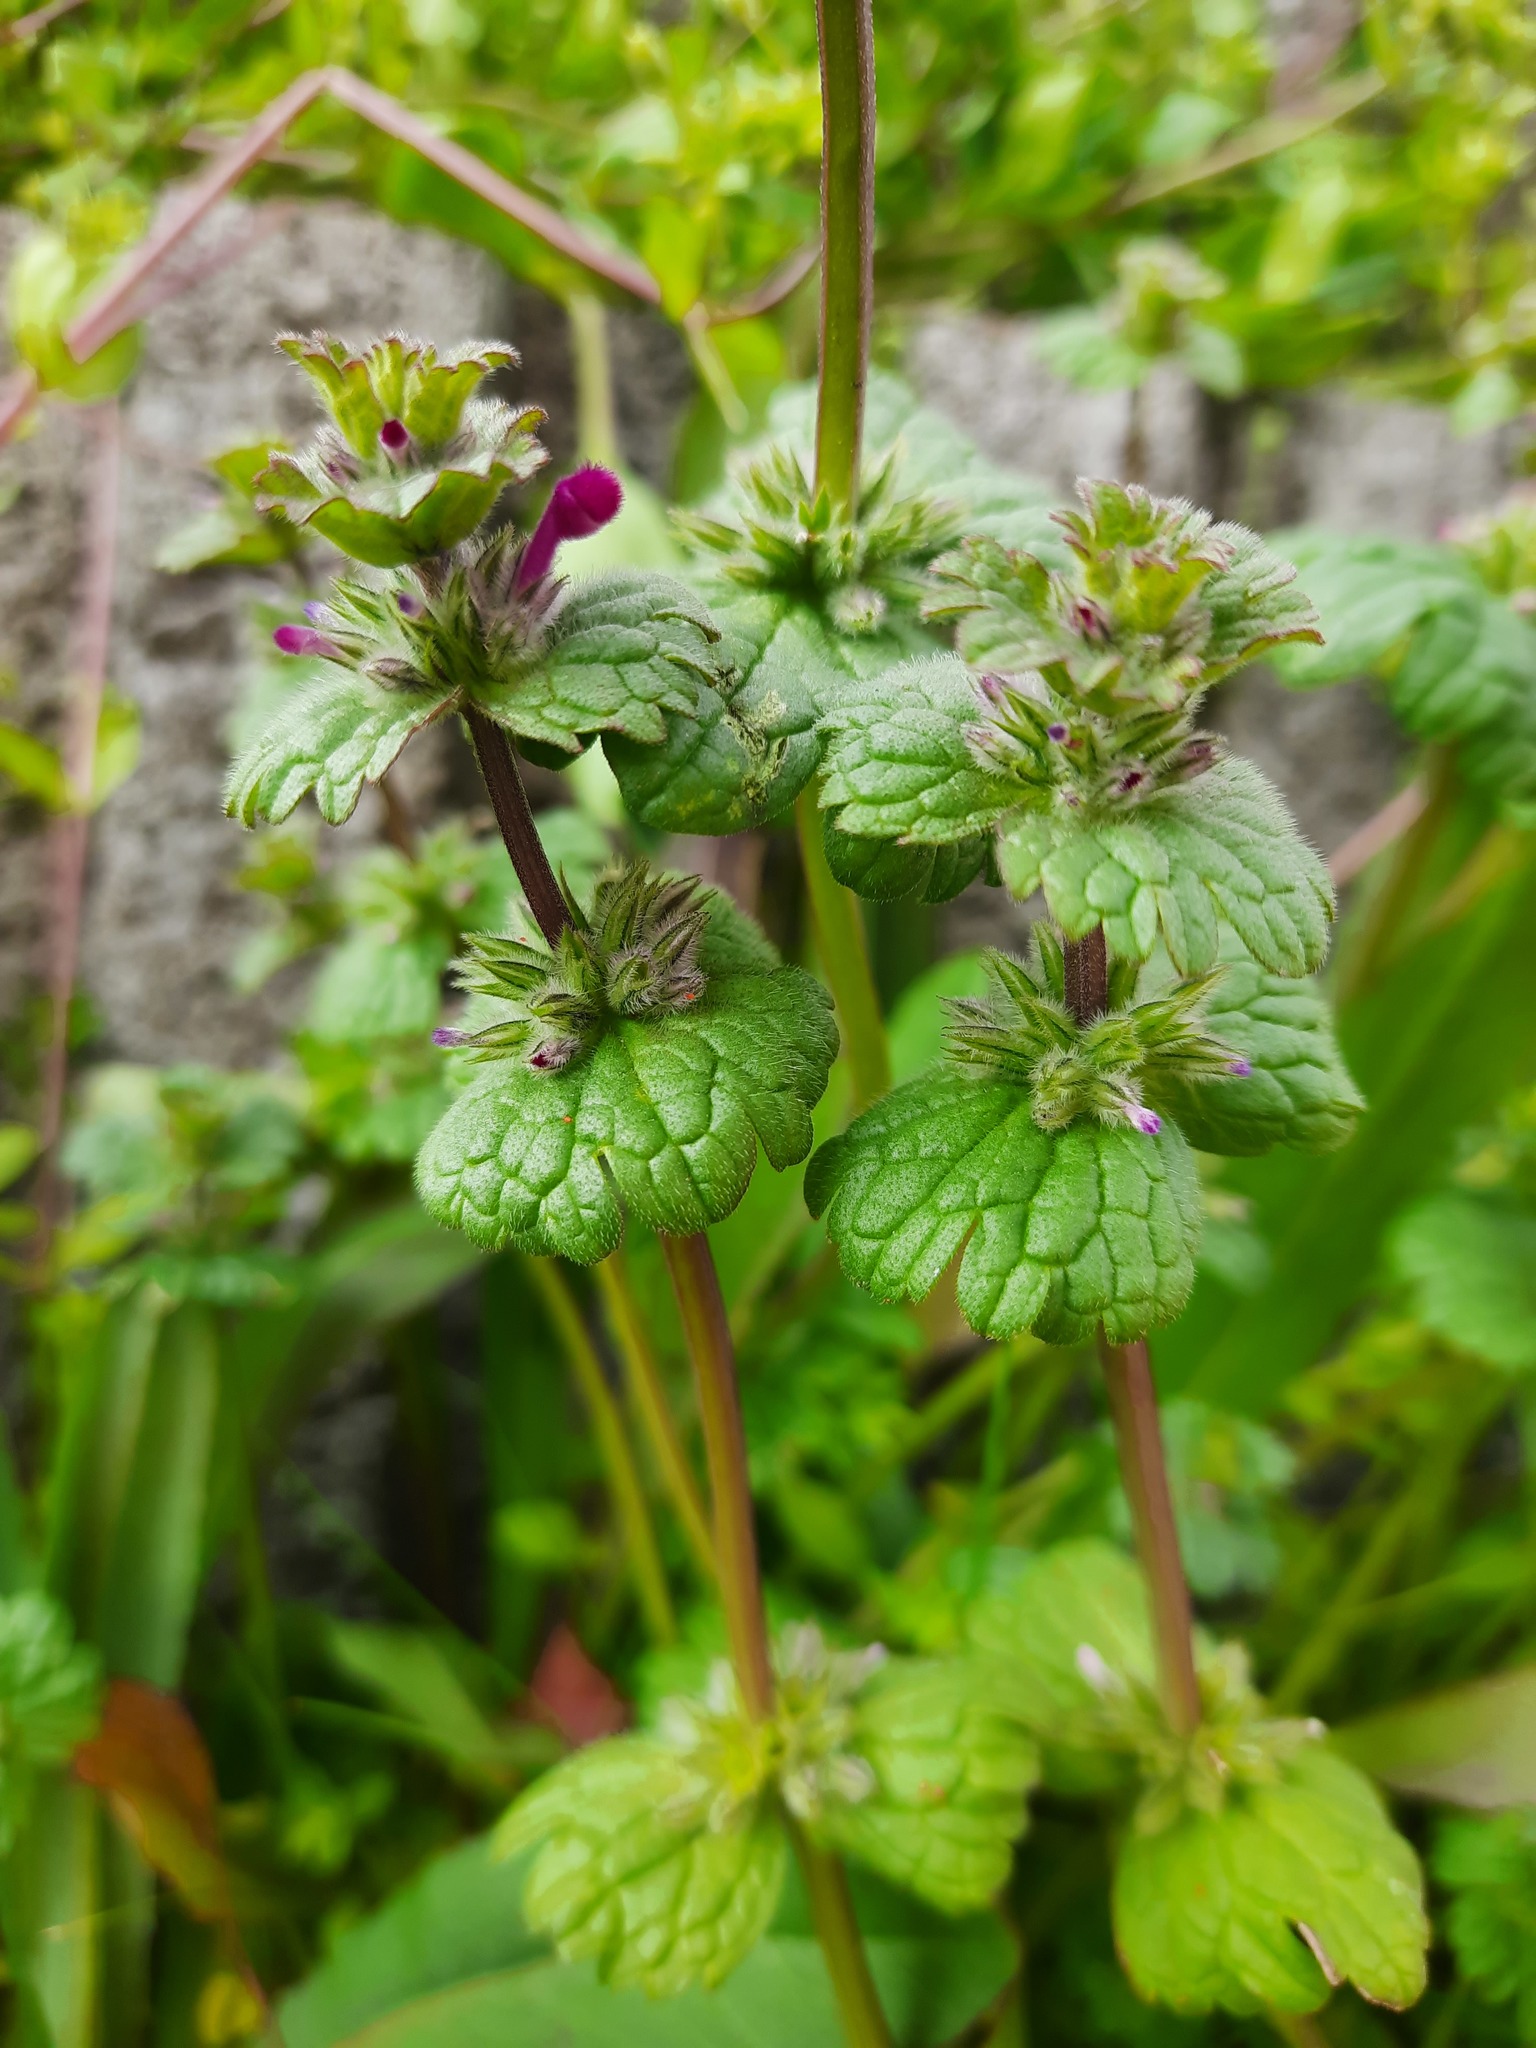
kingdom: Plantae
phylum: Tracheophyta
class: Magnoliopsida
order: Lamiales
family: Lamiaceae
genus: Lamium
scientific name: Lamium amplexicaule
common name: Henbit dead-nettle
